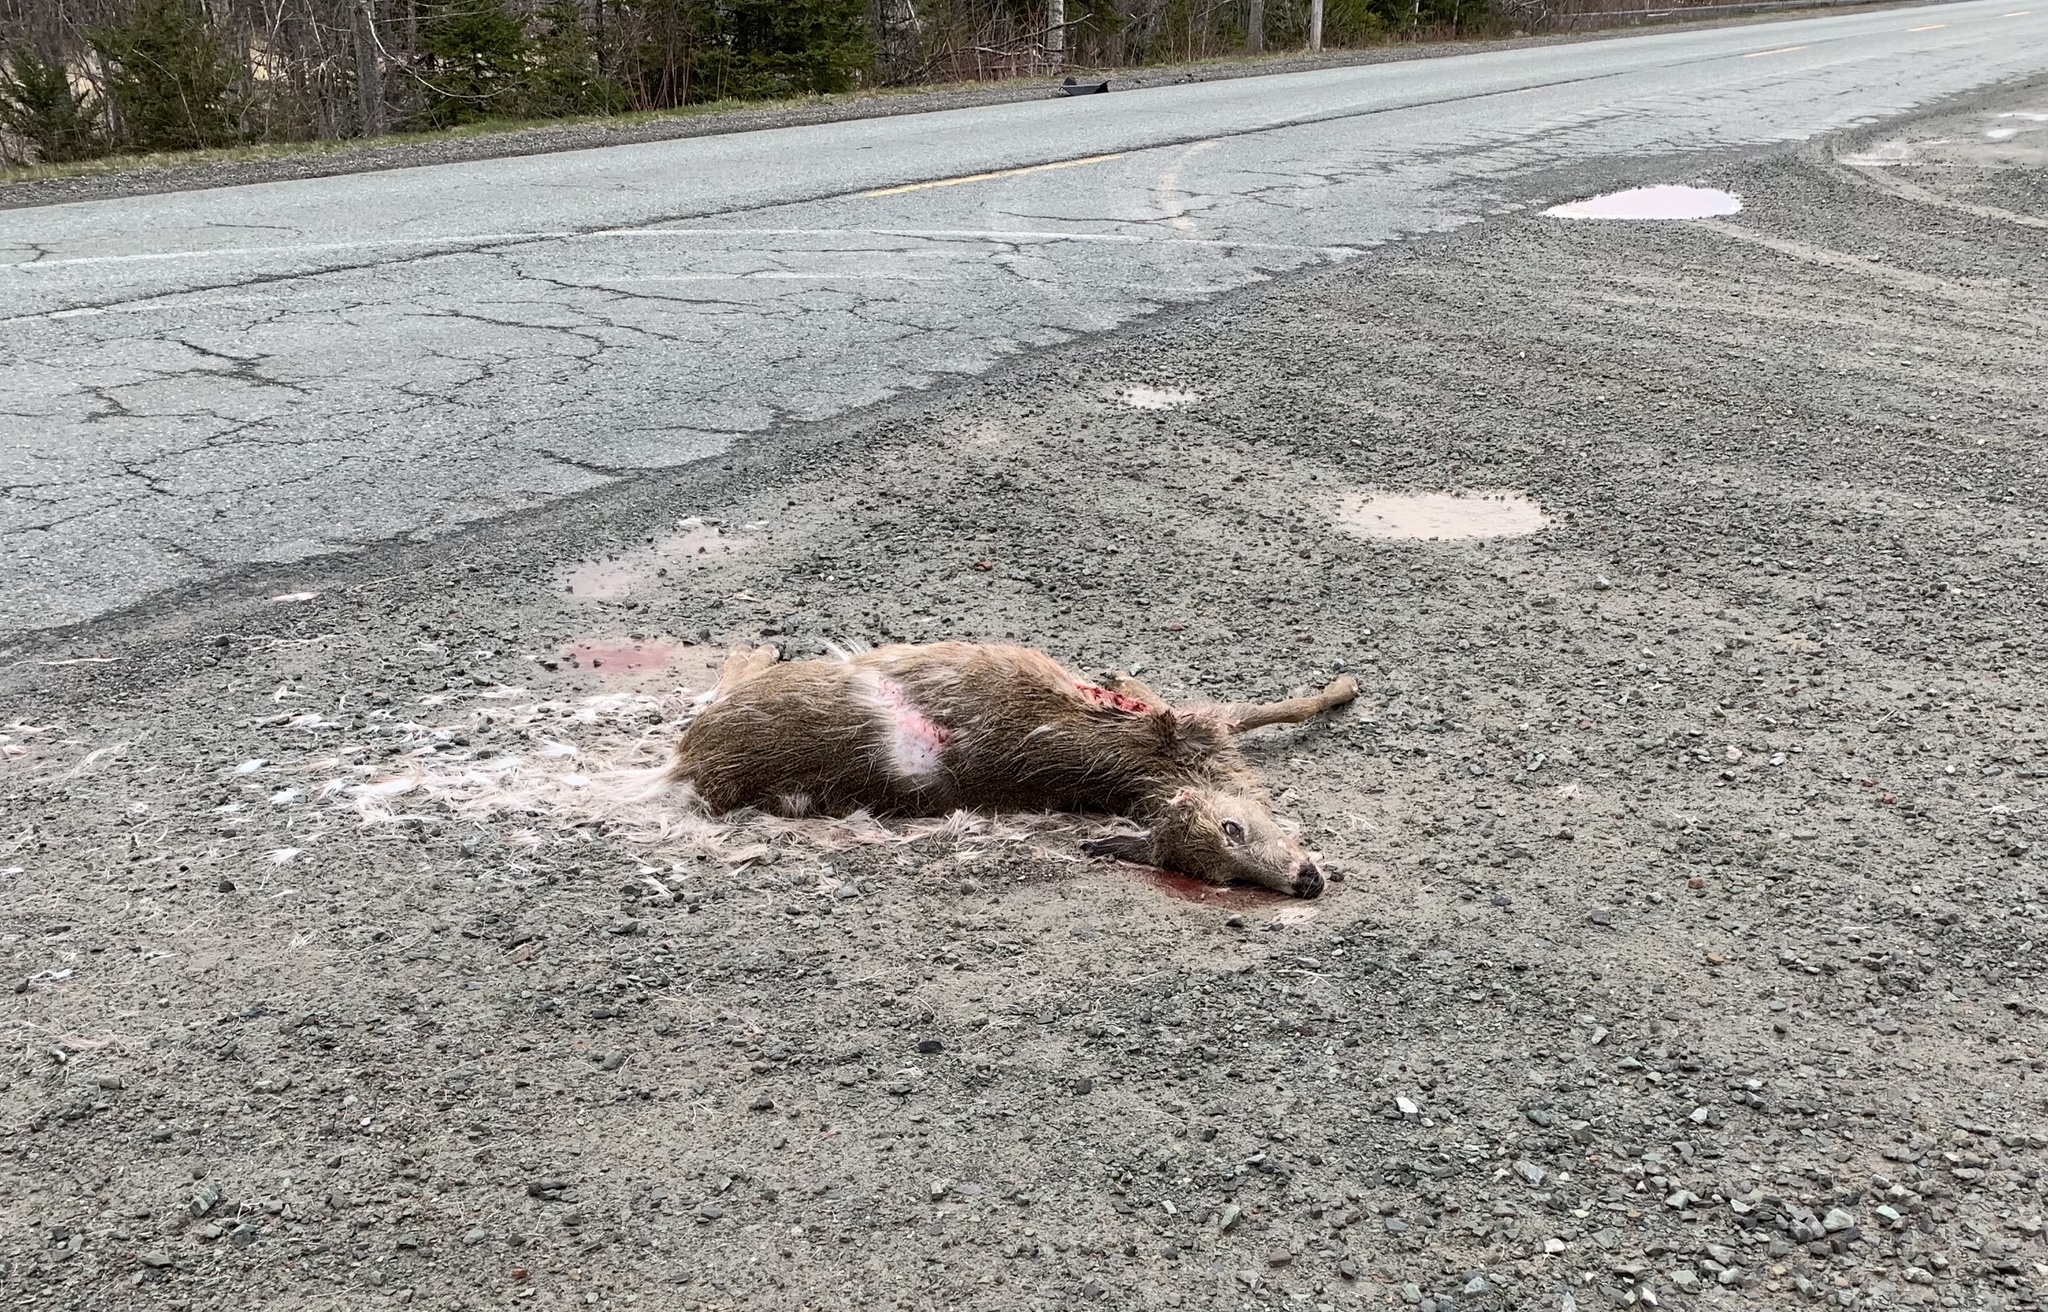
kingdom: Animalia
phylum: Chordata
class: Mammalia
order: Artiodactyla
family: Cervidae
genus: Odocoileus
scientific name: Odocoileus virginianus
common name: White-tailed deer
